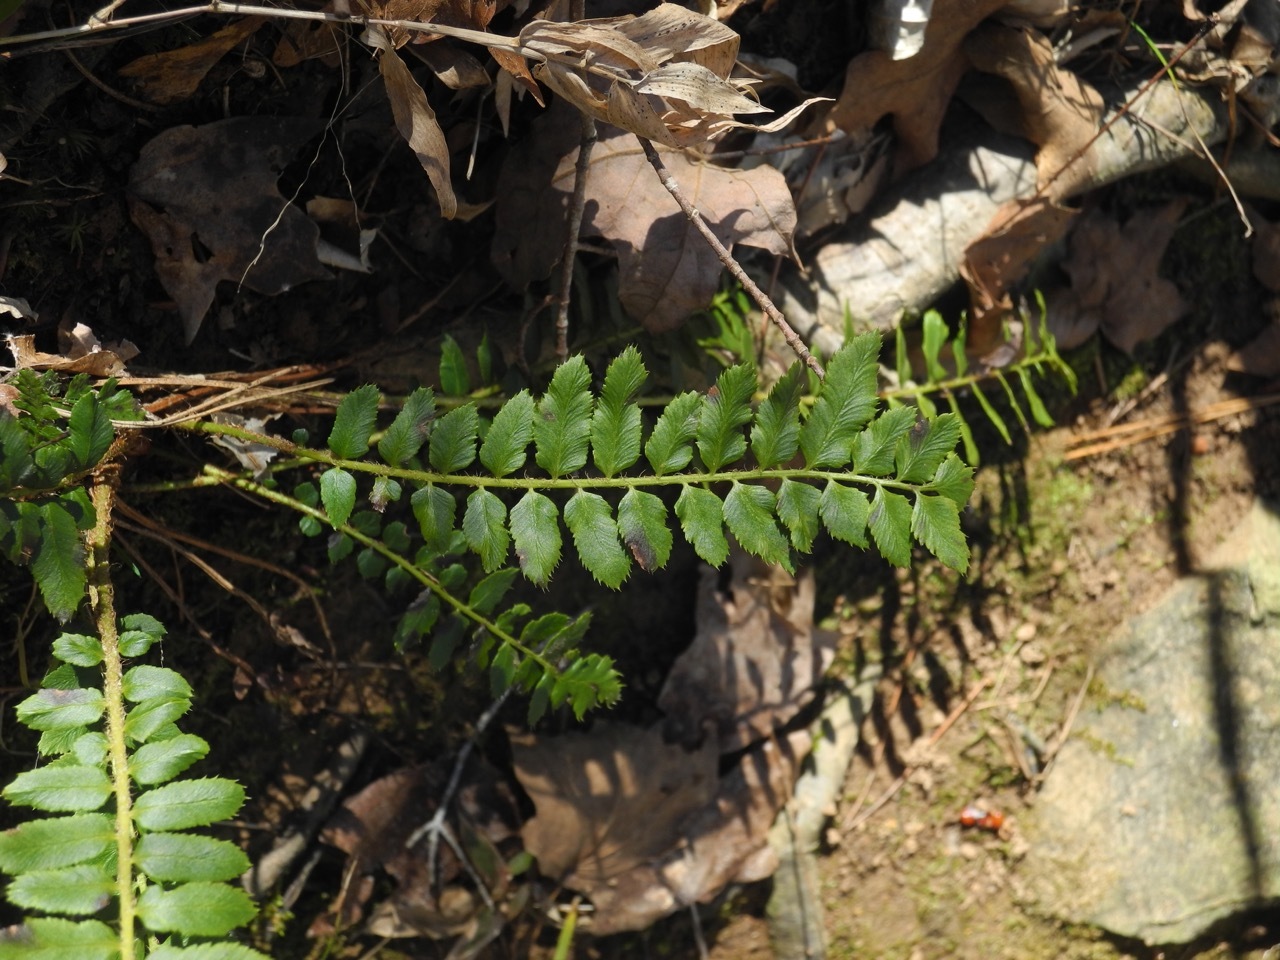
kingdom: Plantae
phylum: Tracheophyta
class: Polypodiopsida
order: Polypodiales
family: Dryopteridaceae
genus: Polystichum
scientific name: Polystichum acrostichoides
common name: Christmas fern
